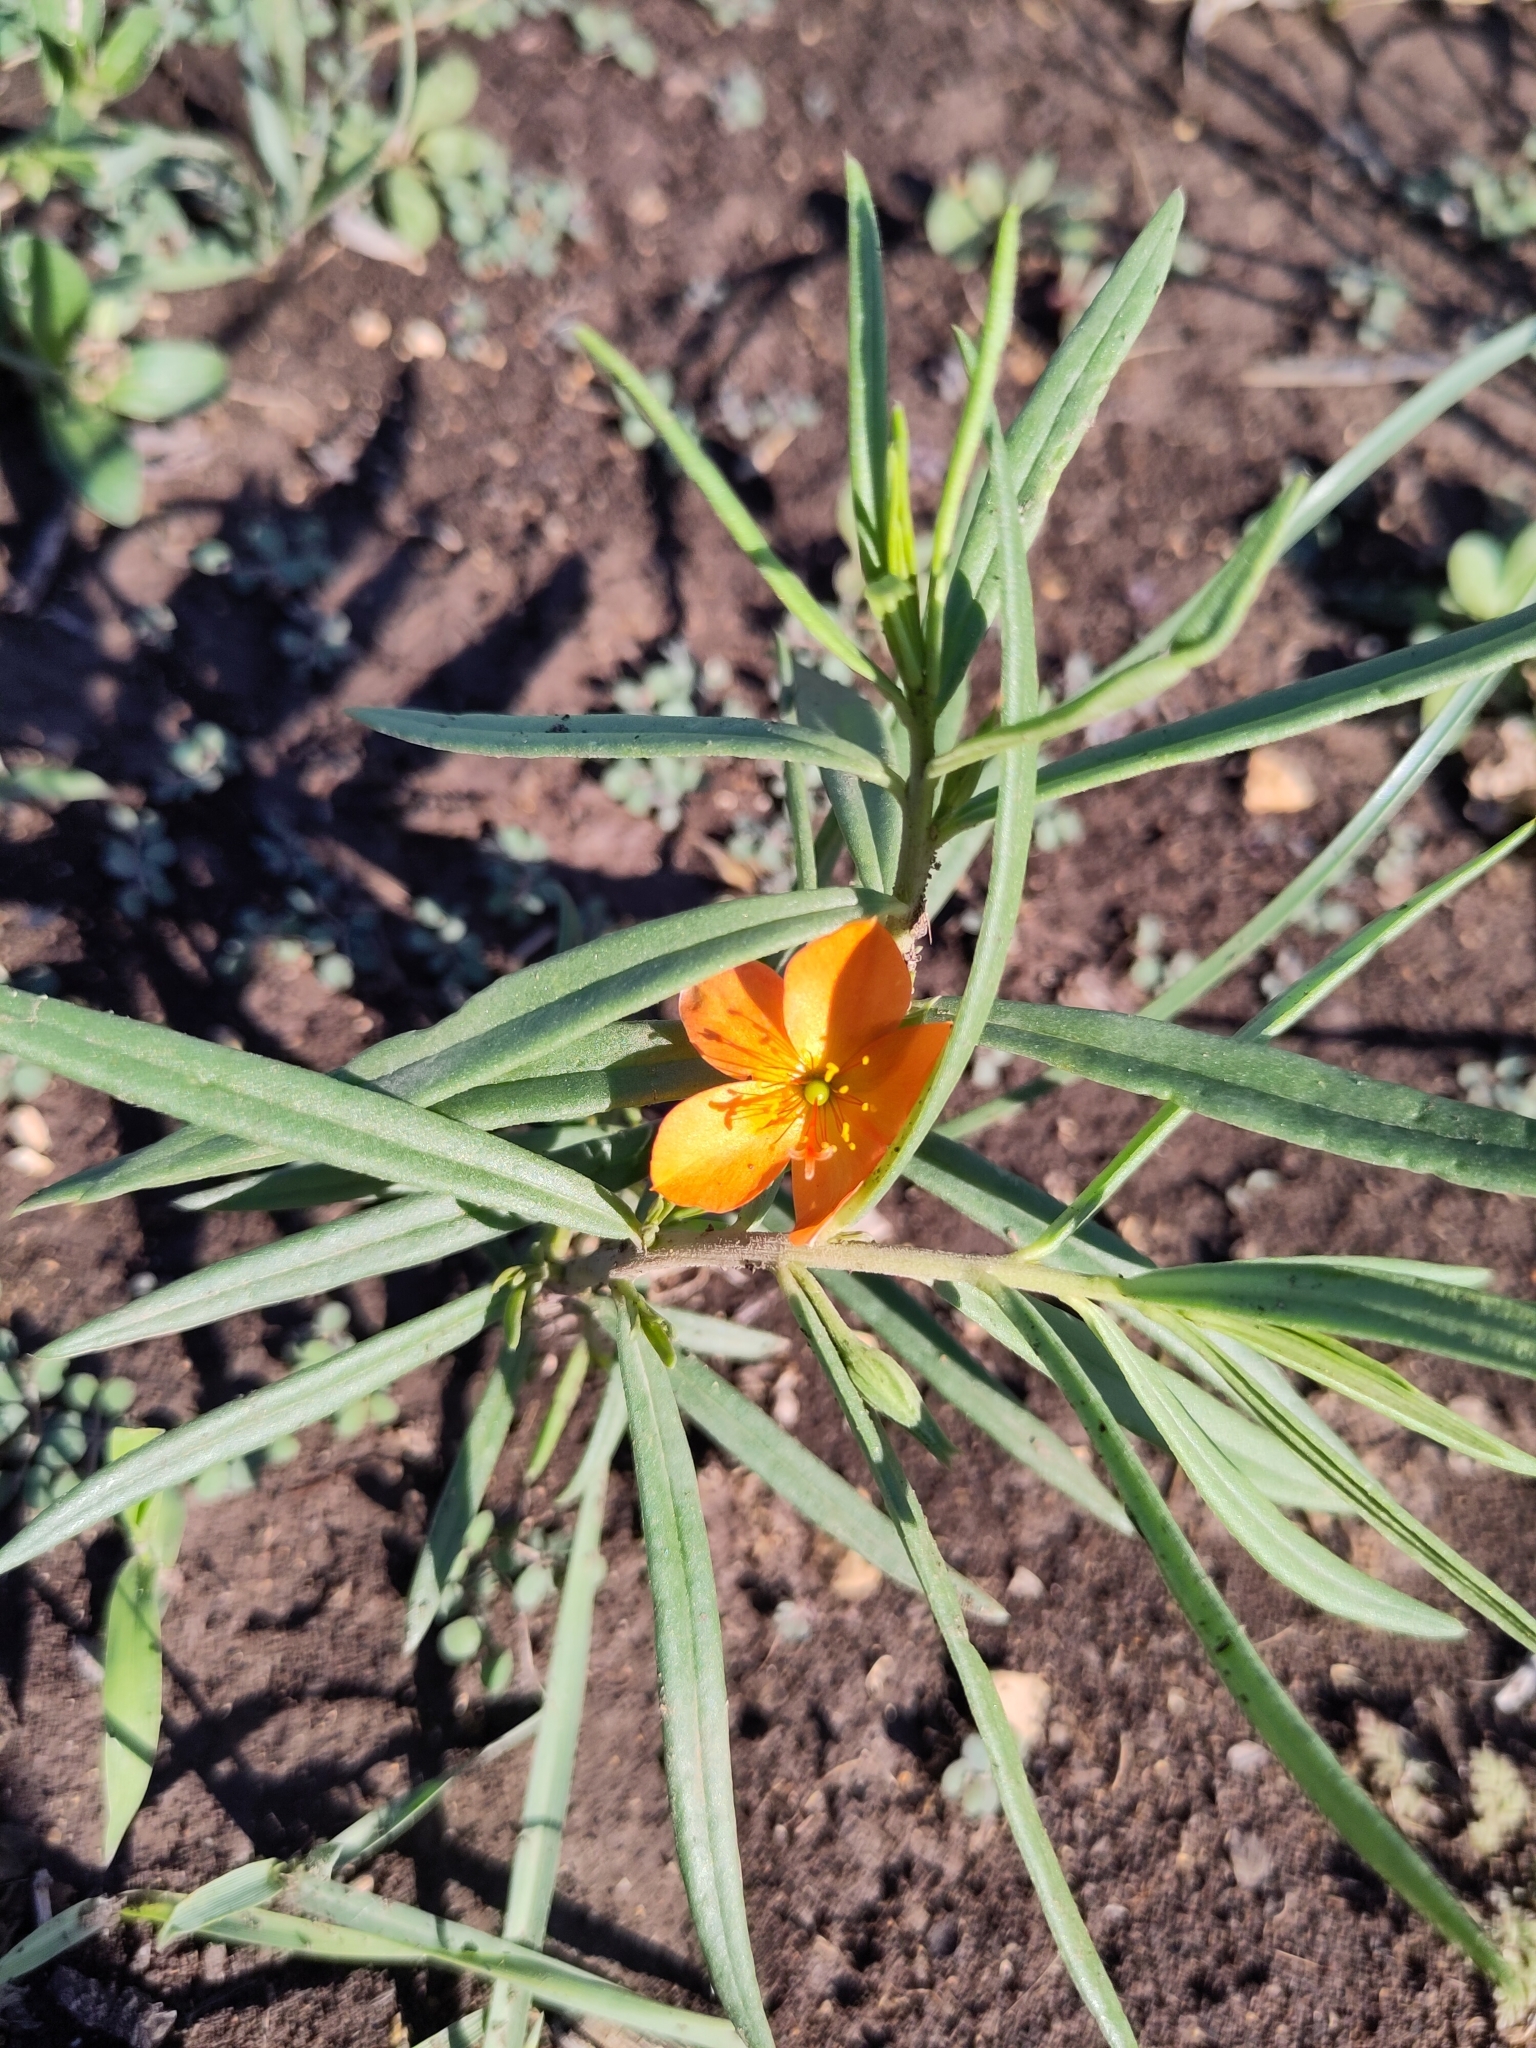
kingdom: Plantae
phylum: Tracheophyta
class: Magnoliopsida
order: Caryophyllales
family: Montiaceae
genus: Phemeranthus
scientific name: Phemeranthus aurantiacus
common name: Orange fameflower
